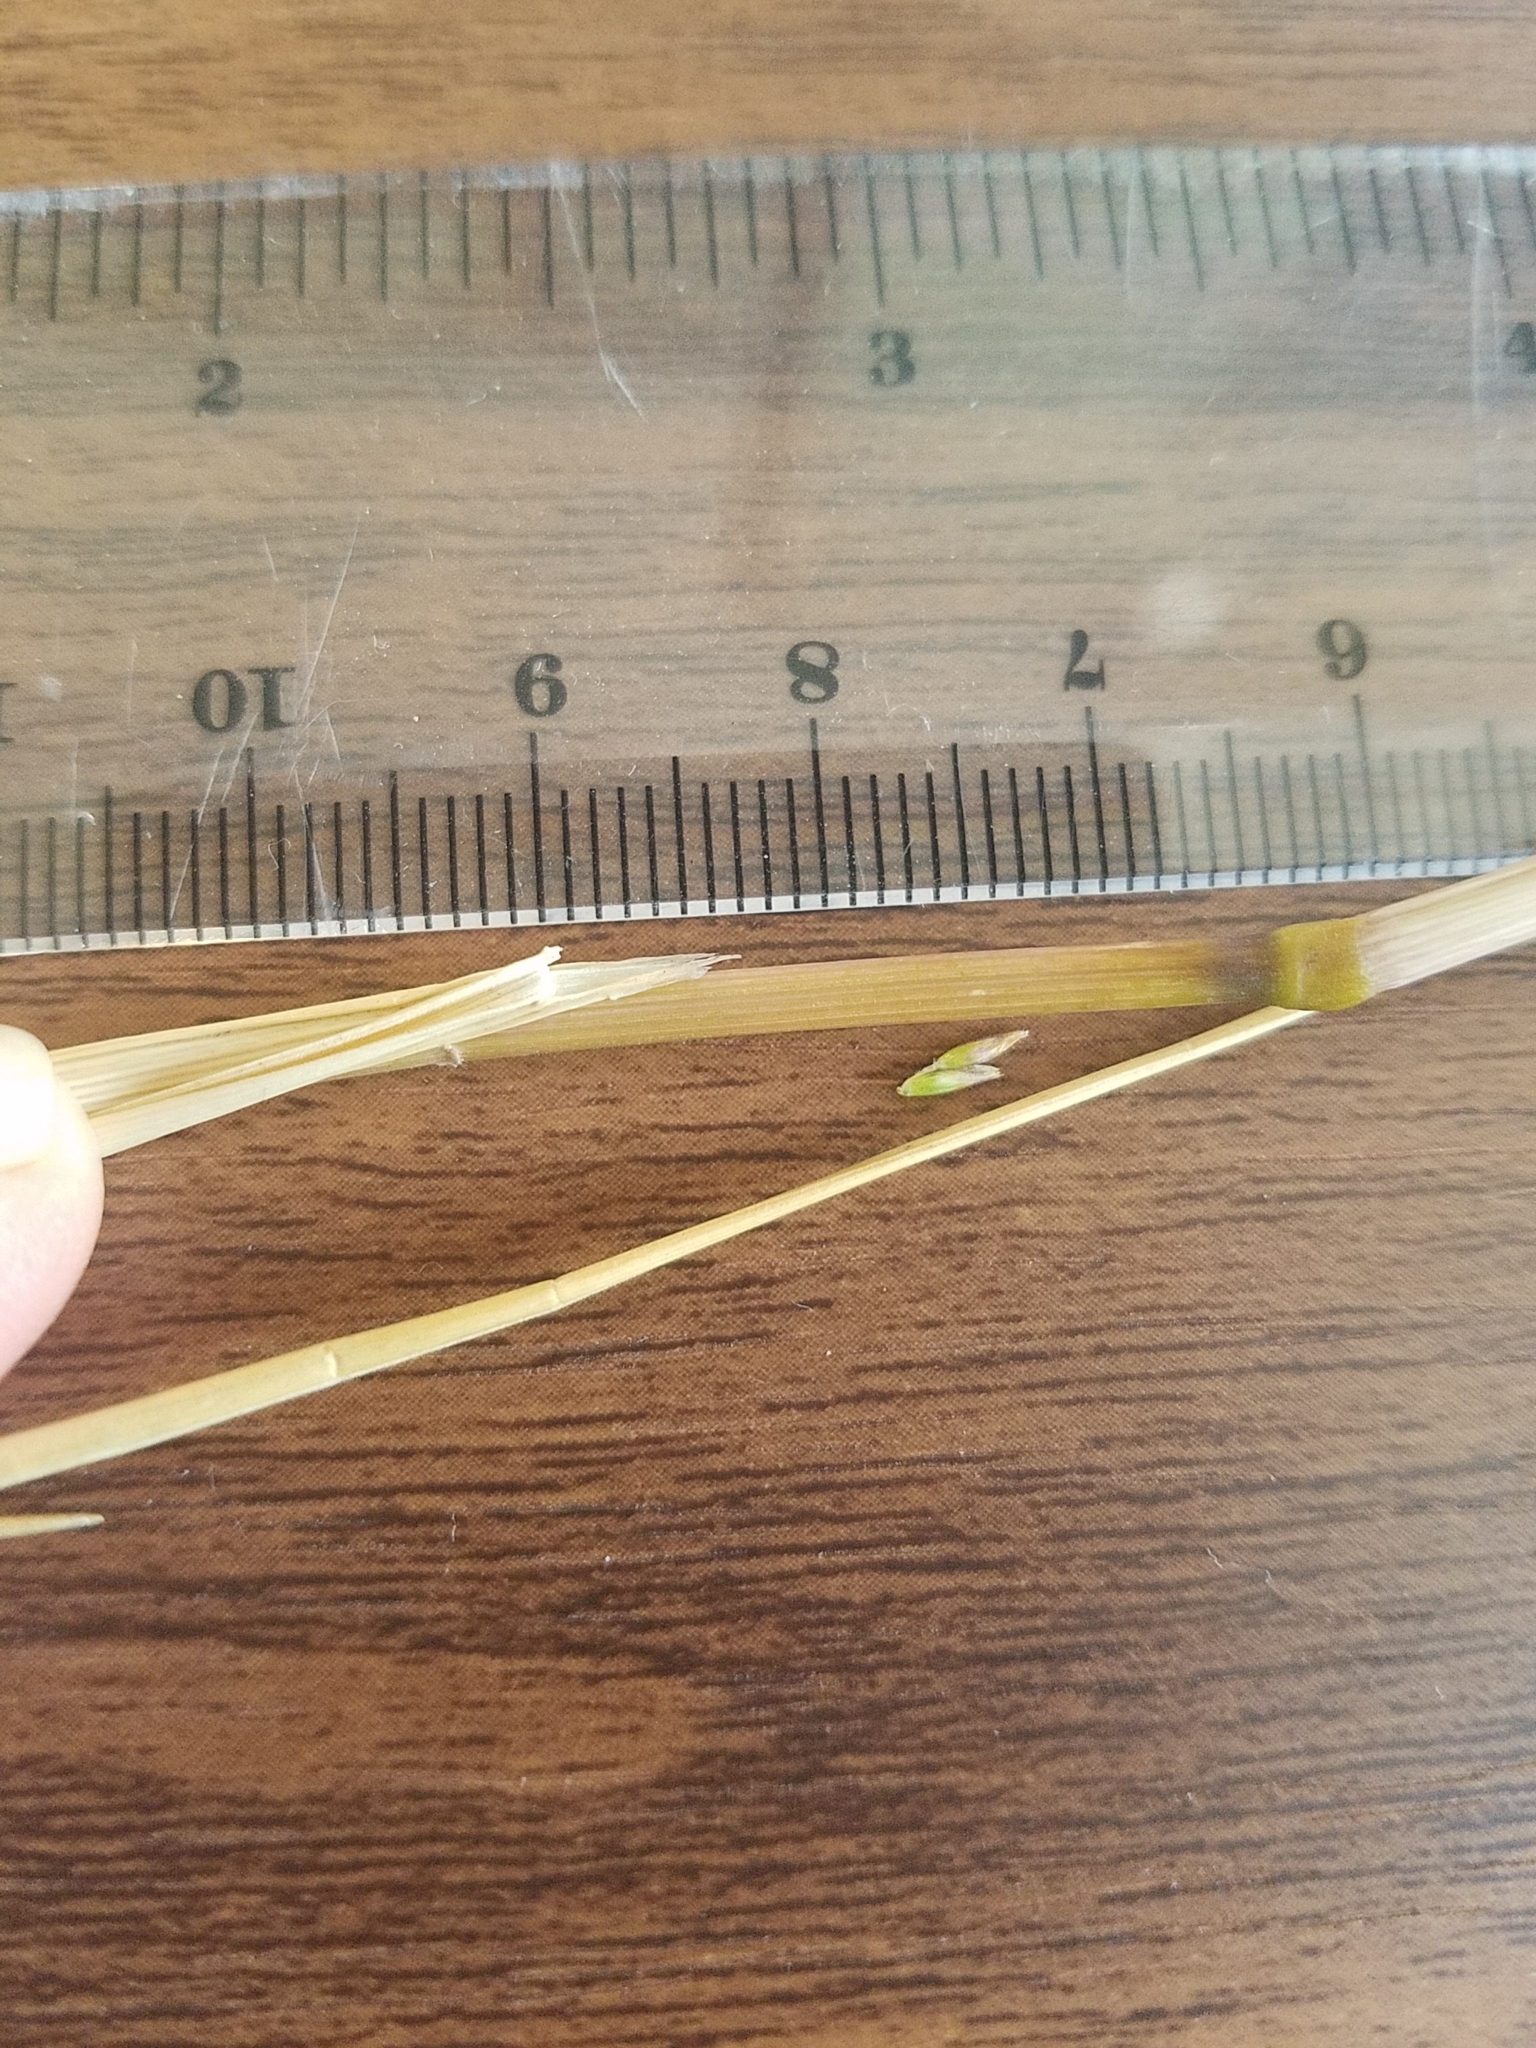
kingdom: Plantae
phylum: Tracheophyta
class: Liliopsida
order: Poales
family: Poaceae
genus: Deschampsia
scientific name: Deschampsia cespitosa
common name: Tufted hair-grass
